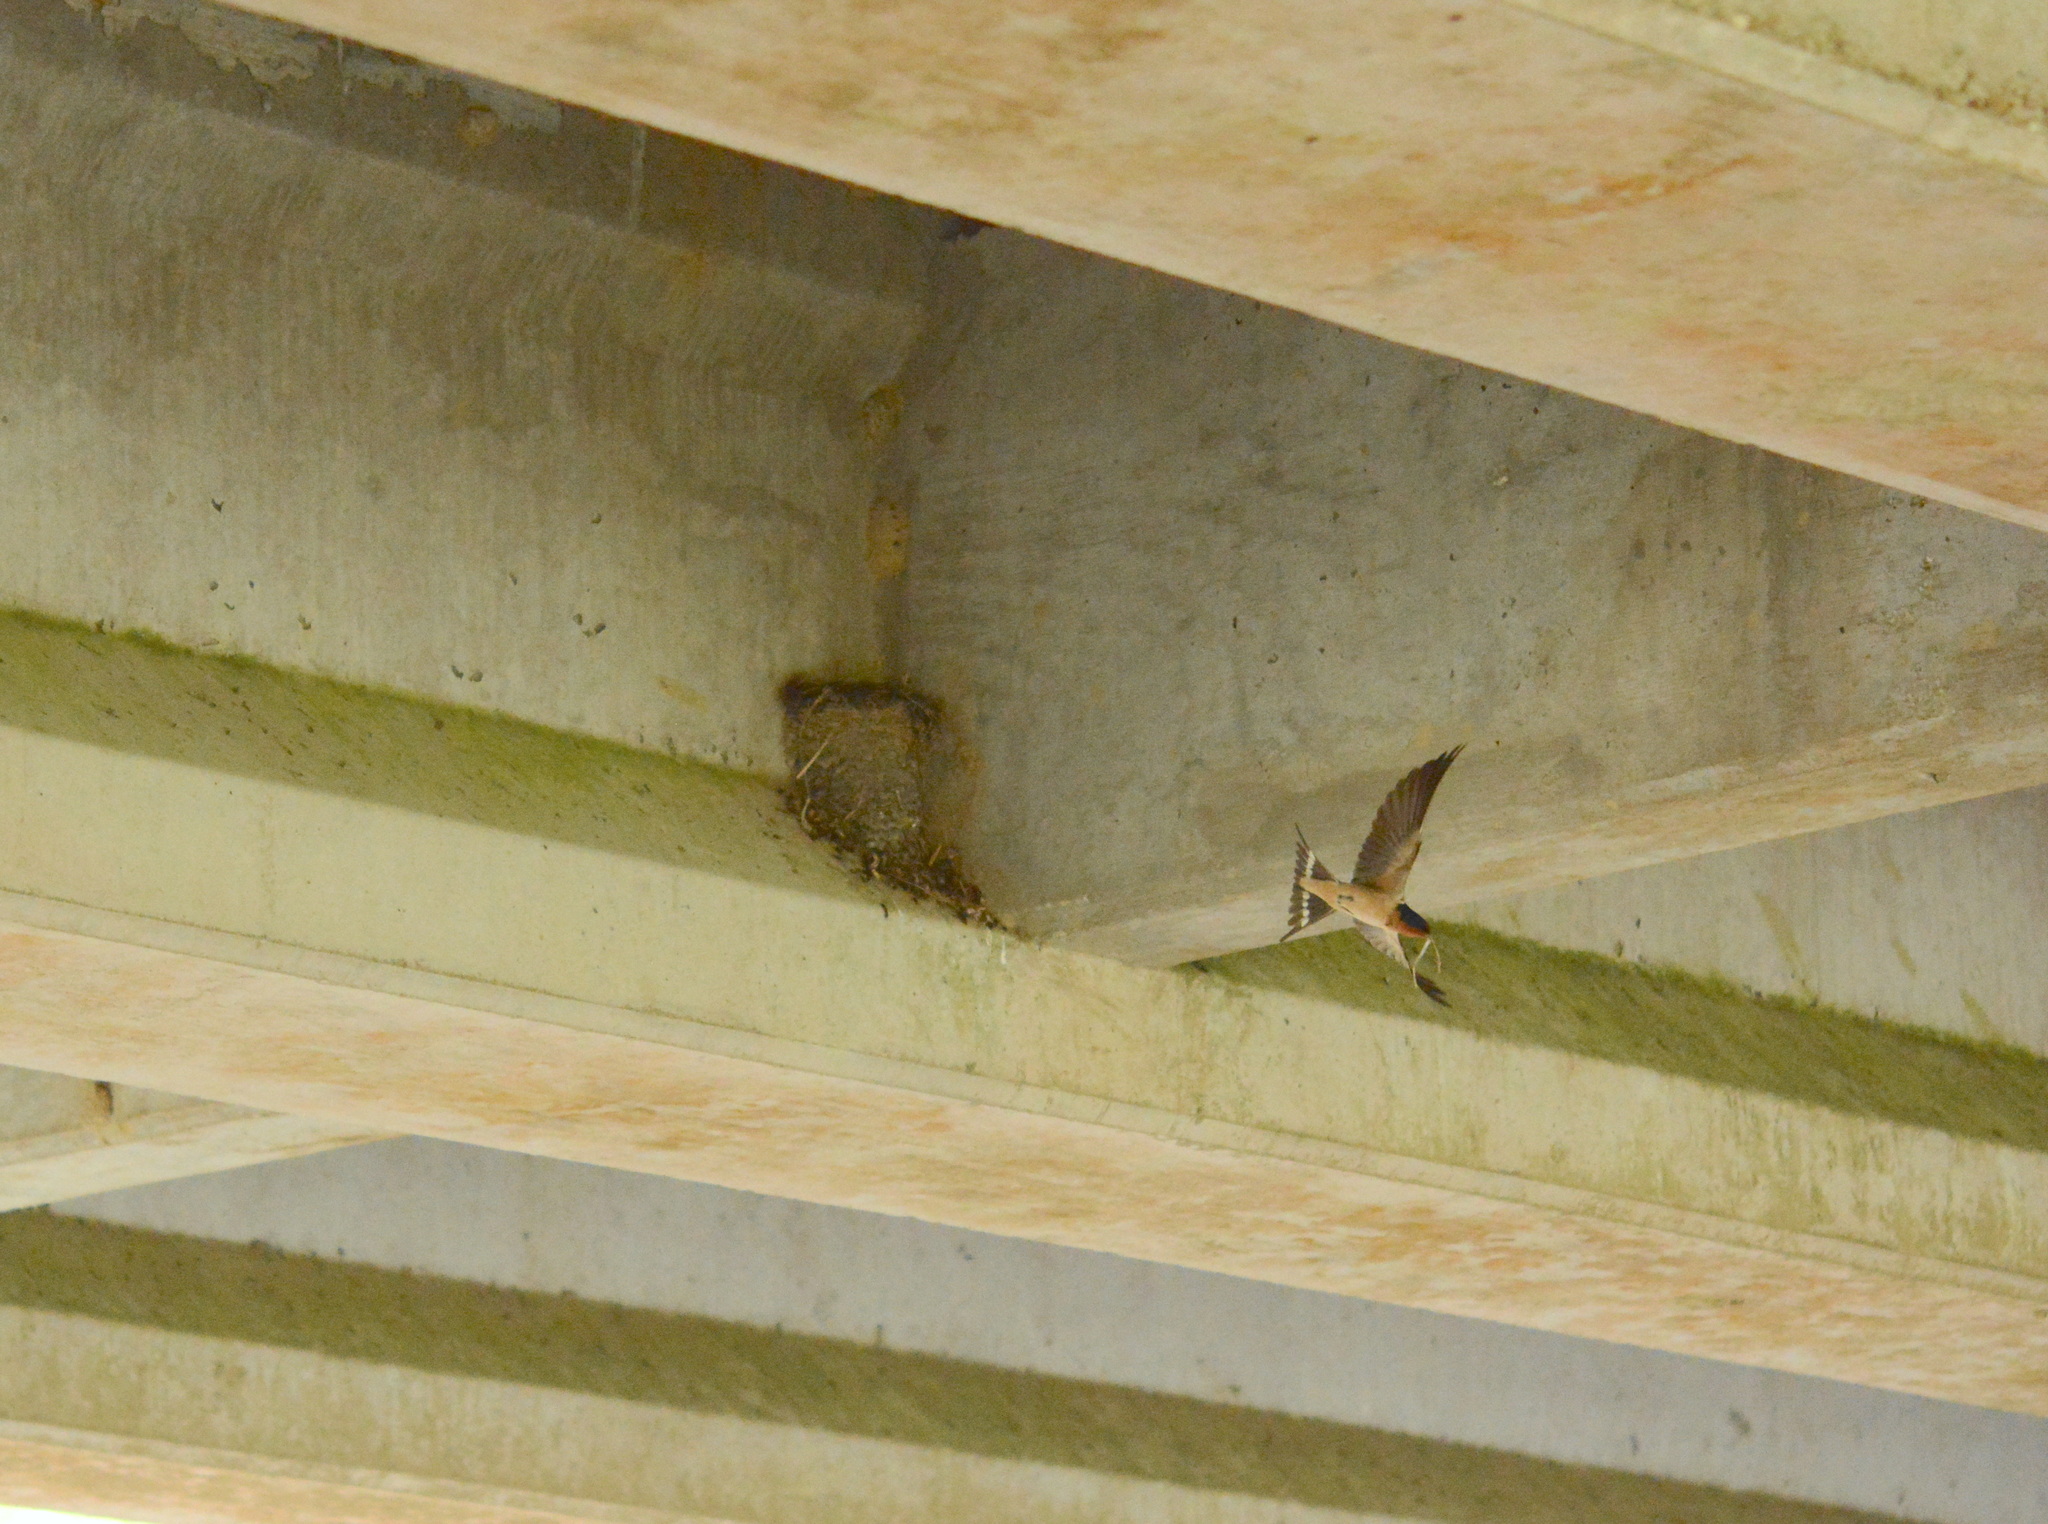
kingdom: Animalia
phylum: Chordata
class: Aves
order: Passeriformes
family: Hirundinidae
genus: Hirundo
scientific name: Hirundo rustica
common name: Barn swallow
